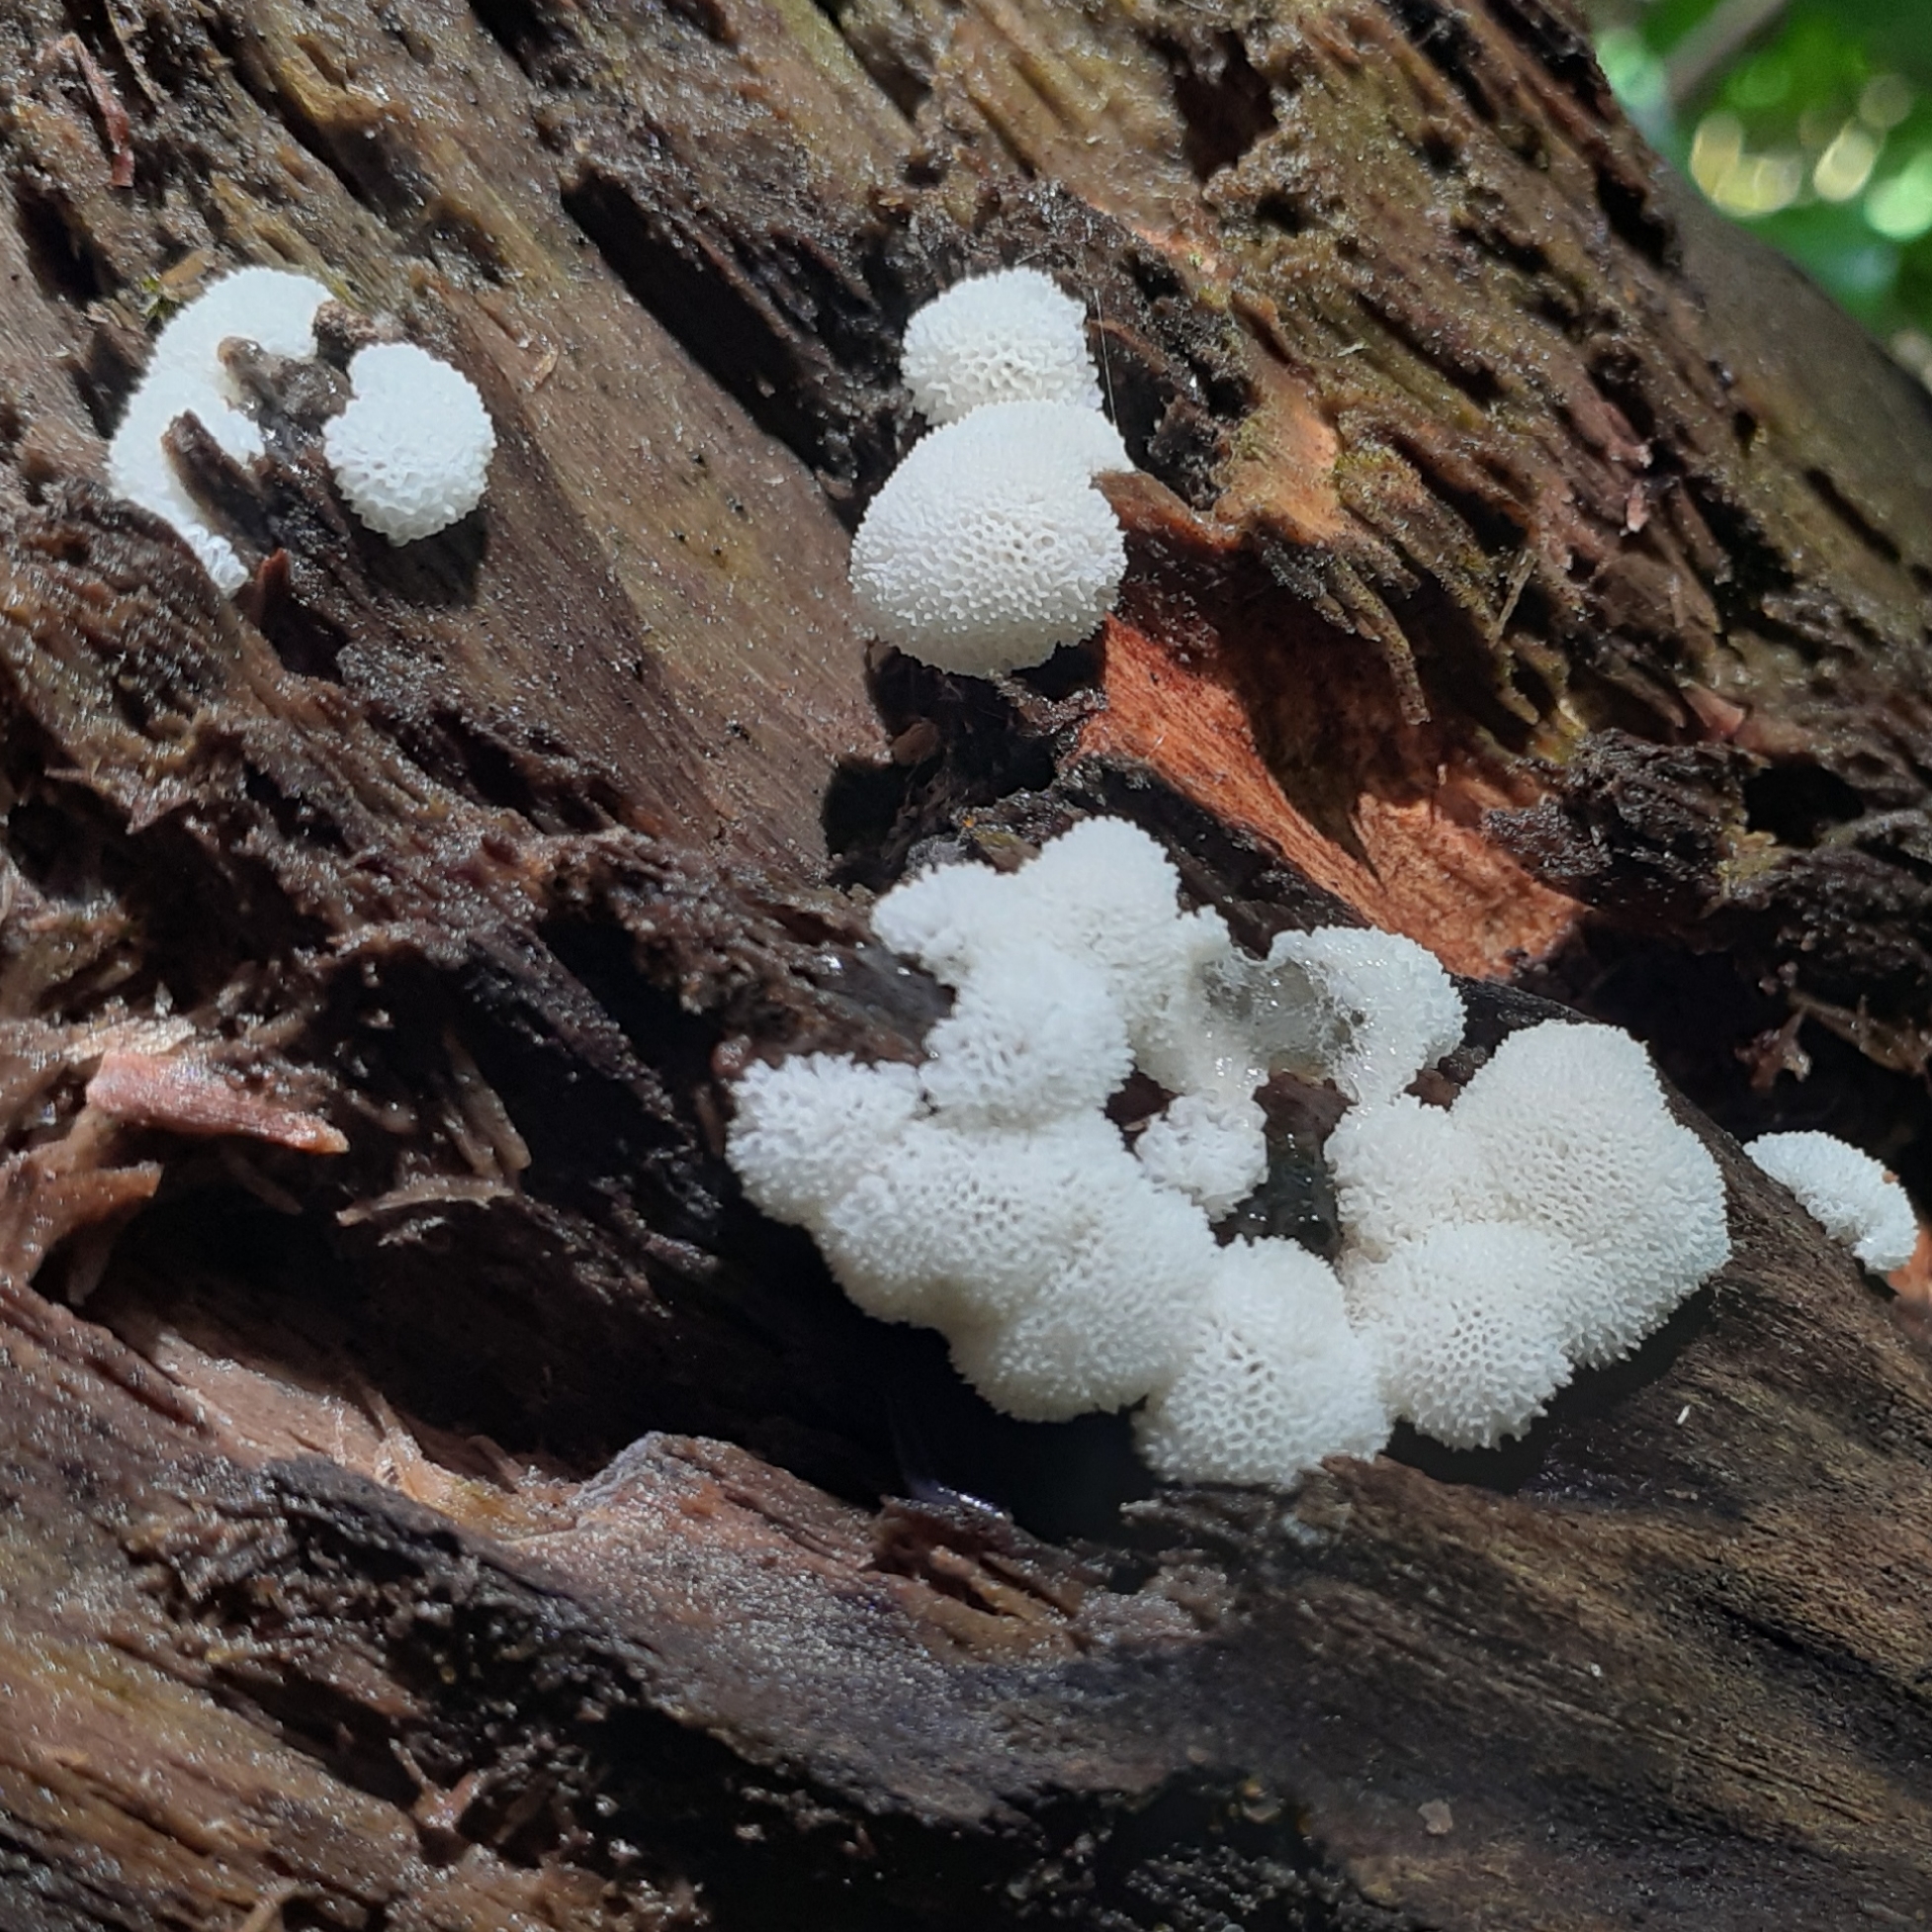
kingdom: Protozoa
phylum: Mycetozoa
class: Protosteliomycetes
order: Ceratiomyxales
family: Ceratiomyxaceae
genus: Ceratiomyxa
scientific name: Ceratiomyxa fruticulosa
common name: Honeycomb coral slime mold
